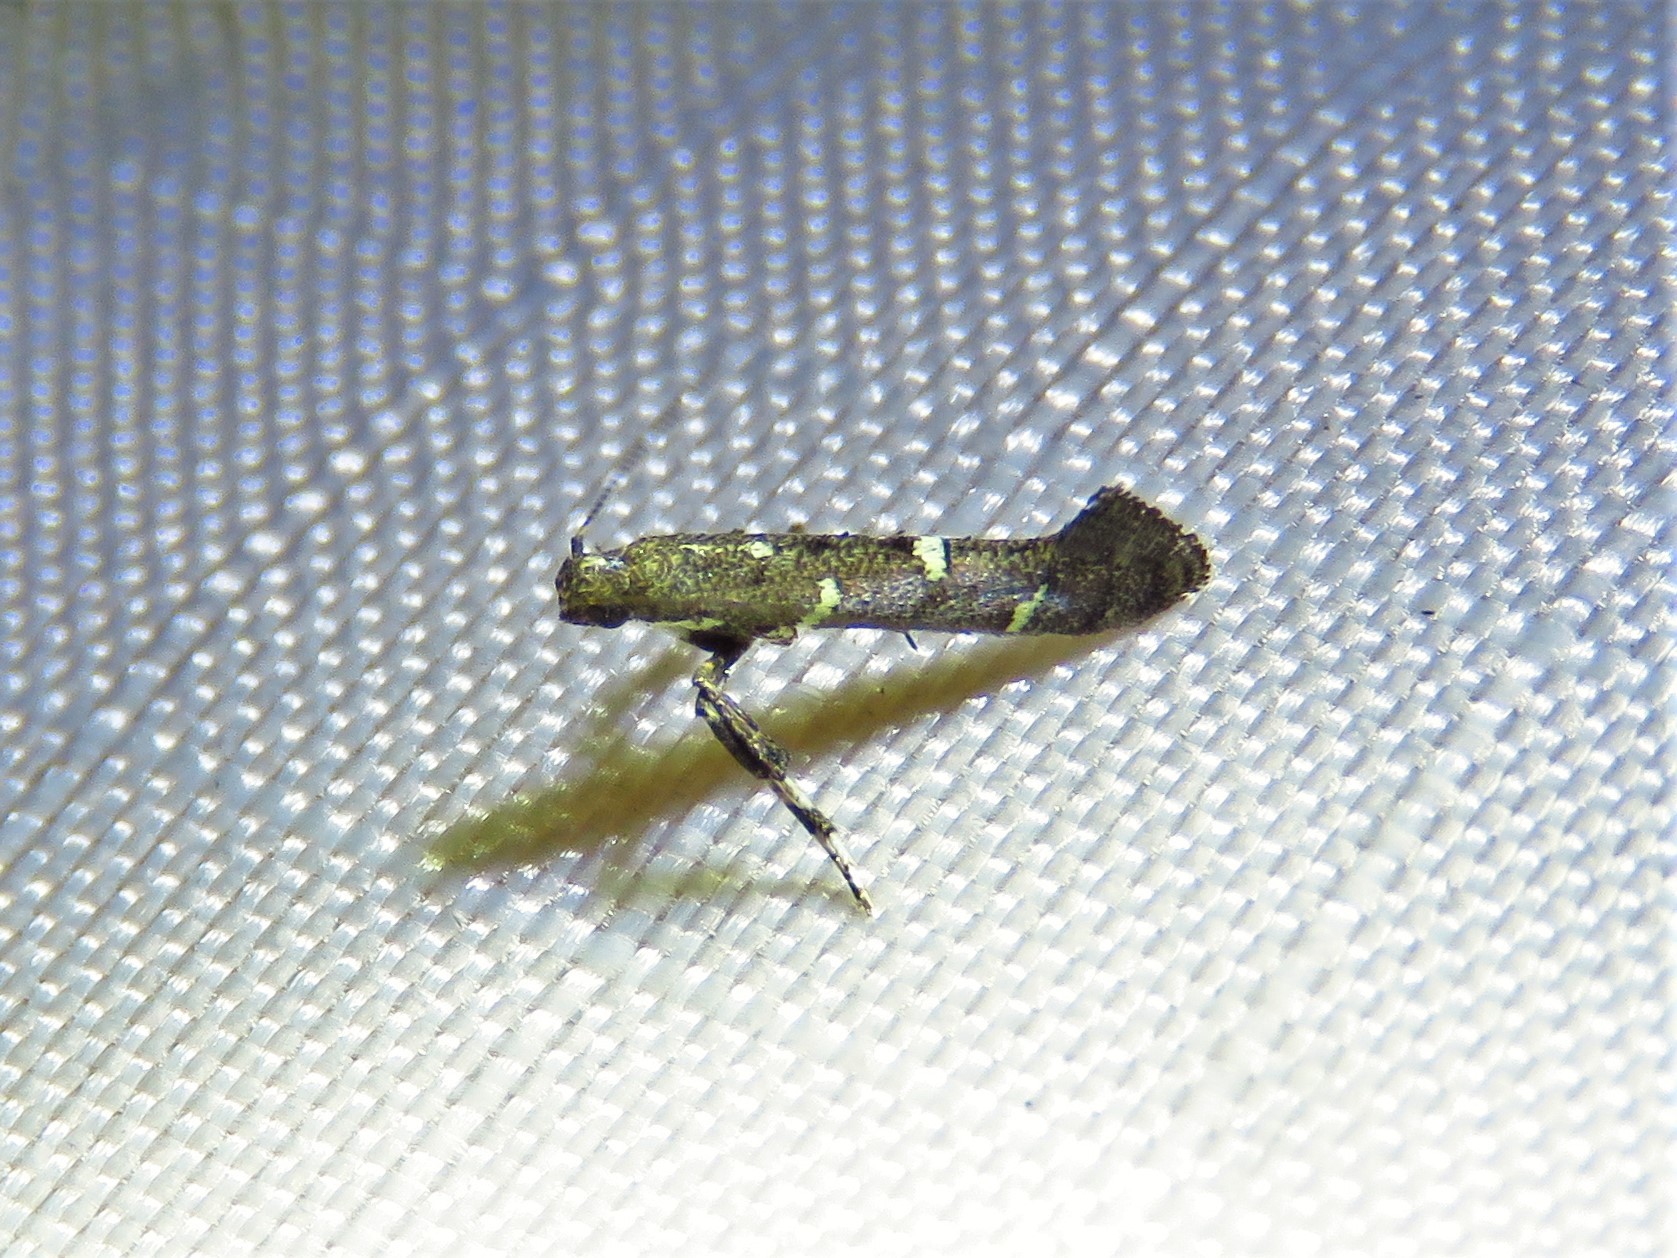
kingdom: Animalia
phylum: Arthropoda
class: Insecta
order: Lepidoptera
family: Gracillariidae
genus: Caloptilia
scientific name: Caloptilia triadicae
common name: Tallow leaf roller
